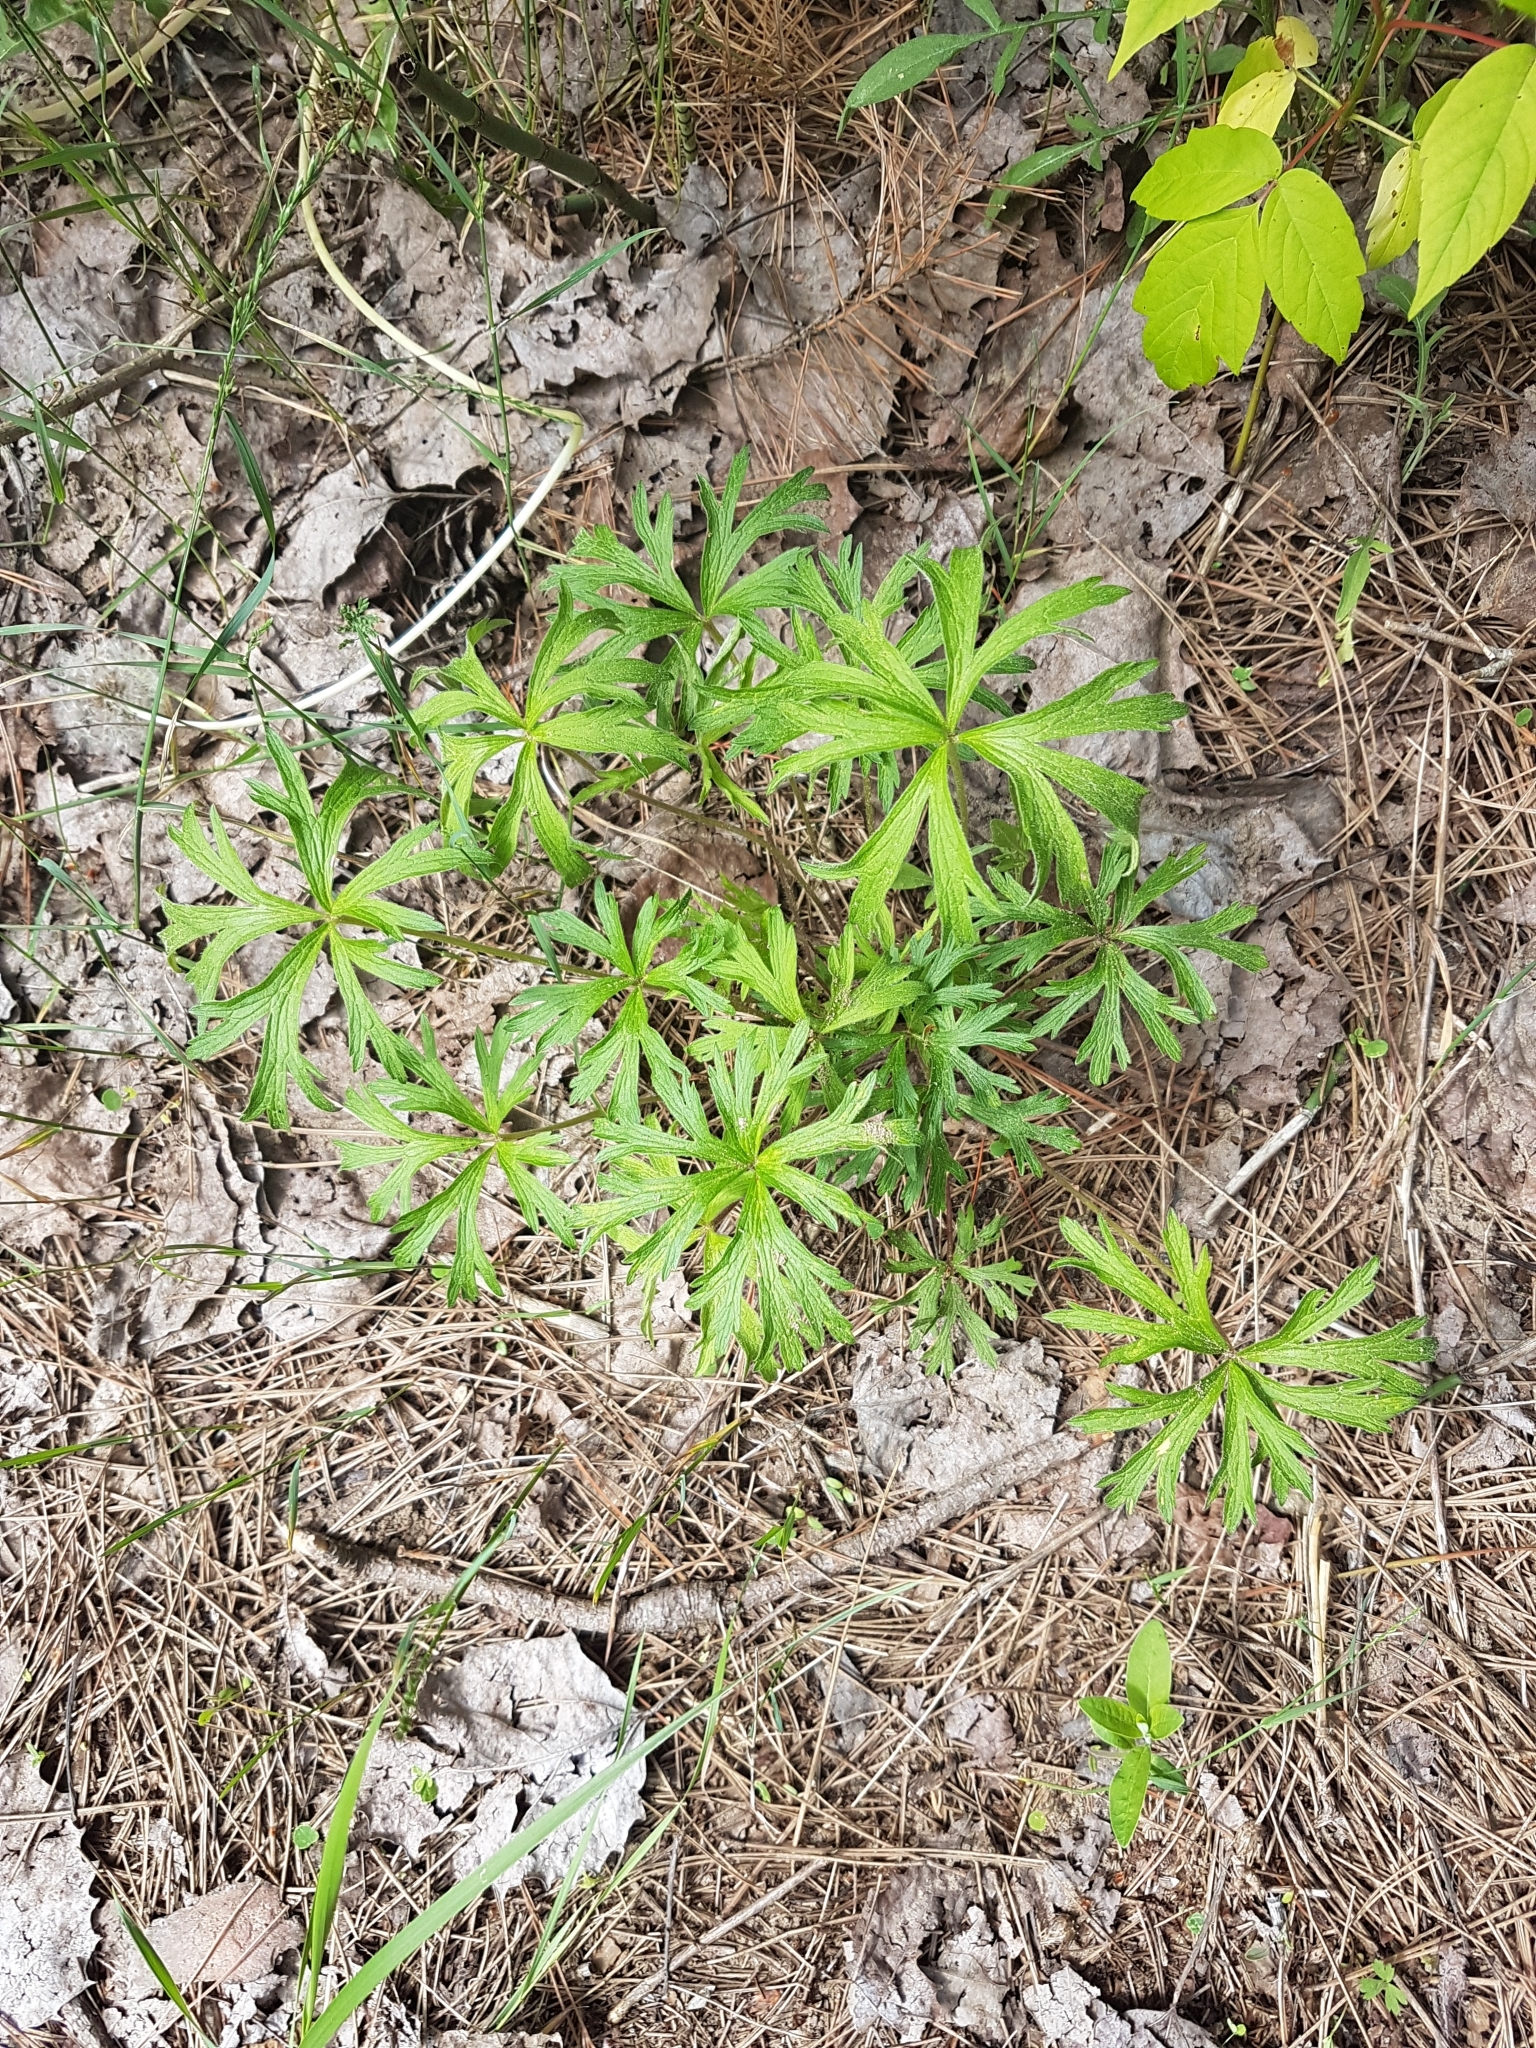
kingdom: Plantae
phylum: Tracheophyta
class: Magnoliopsida
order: Ranunculales
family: Ranunculaceae
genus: Anemone
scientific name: Anemone cylindrica
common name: Candle anemone
